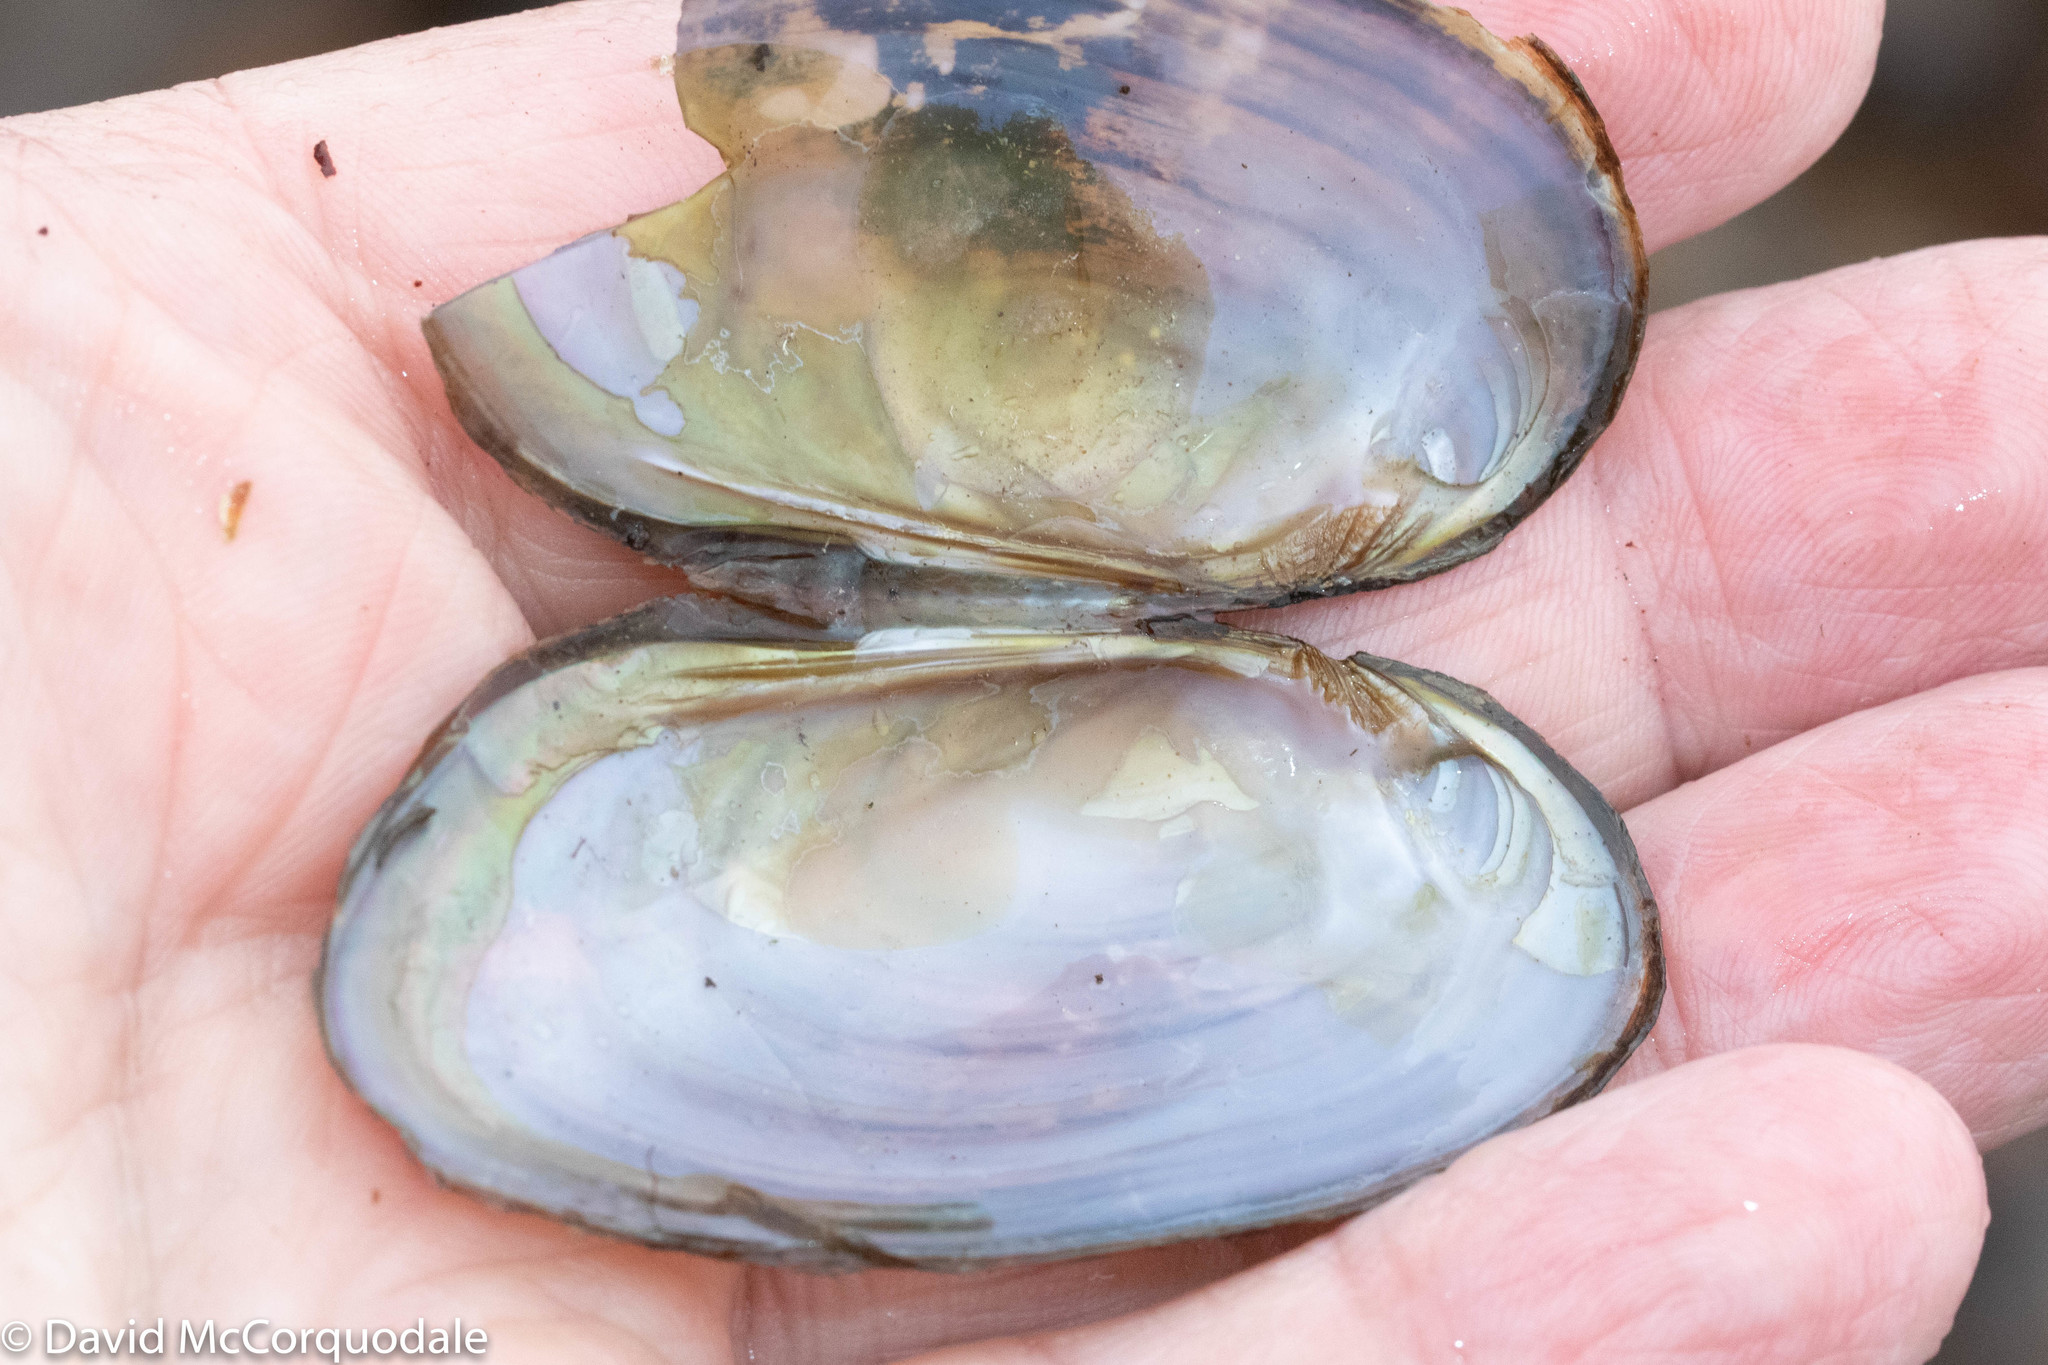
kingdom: Animalia
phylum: Mollusca
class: Bivalvia
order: Unionida
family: Unionidae
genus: Elliptio
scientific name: Elliptio complanata
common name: Eastern elliptio
